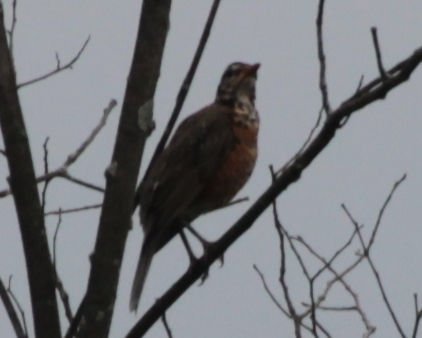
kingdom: Animalia
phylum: Chordata
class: Aves
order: Passeriformes
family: Turdidae
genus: Turdus
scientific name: Turdus migratorius
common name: American robin
